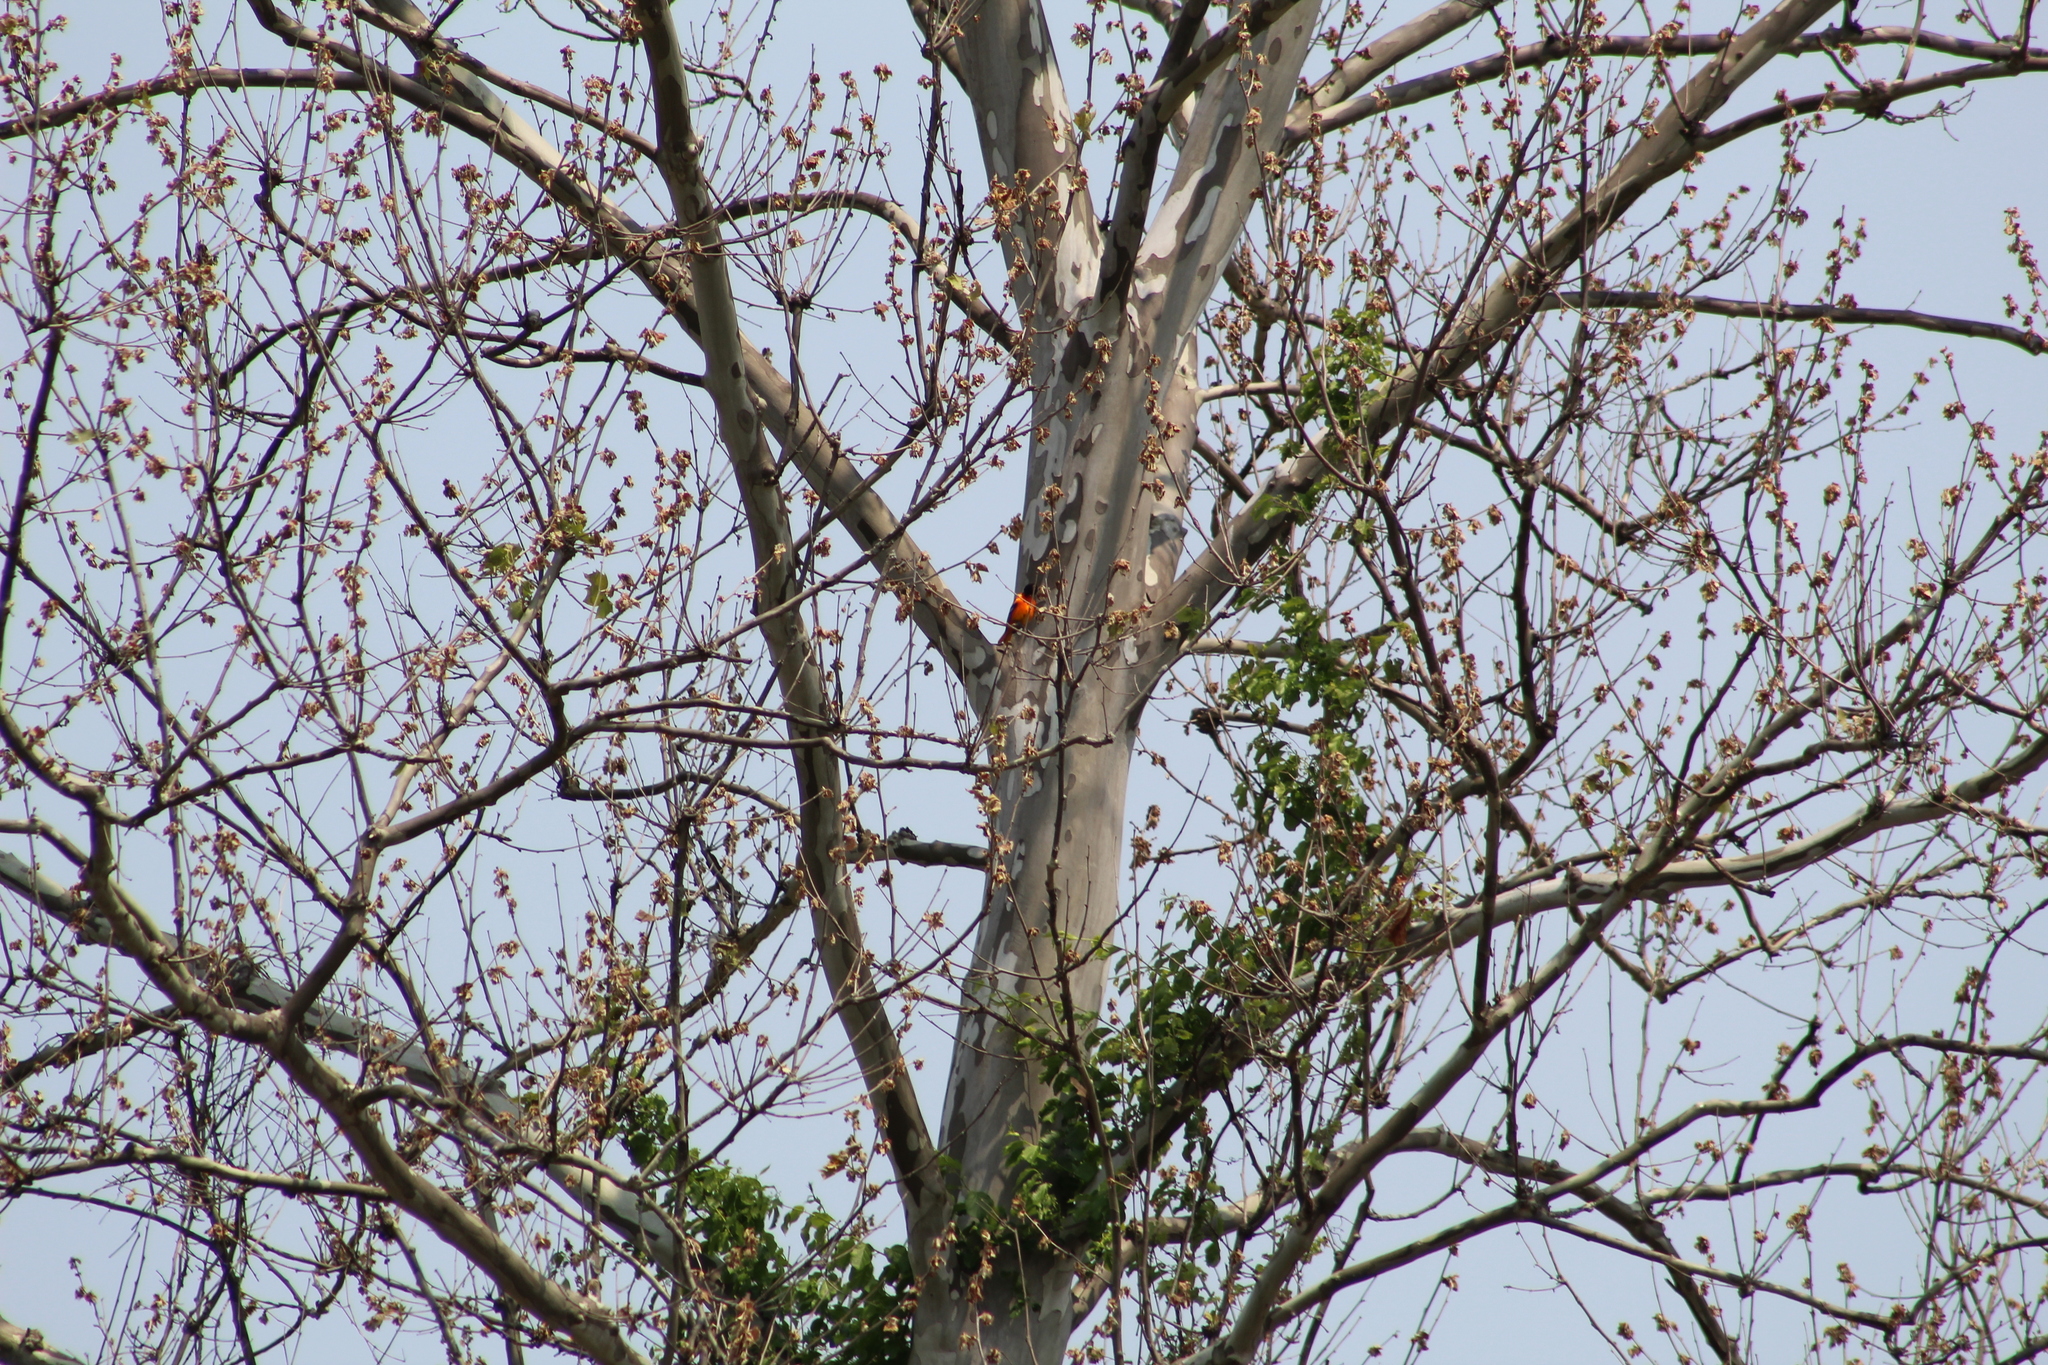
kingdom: Animalia
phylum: Chordata
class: Aves
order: Passeriformes
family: Icteridae
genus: Icterus
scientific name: Icterus galbula
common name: Baltimore oriole
